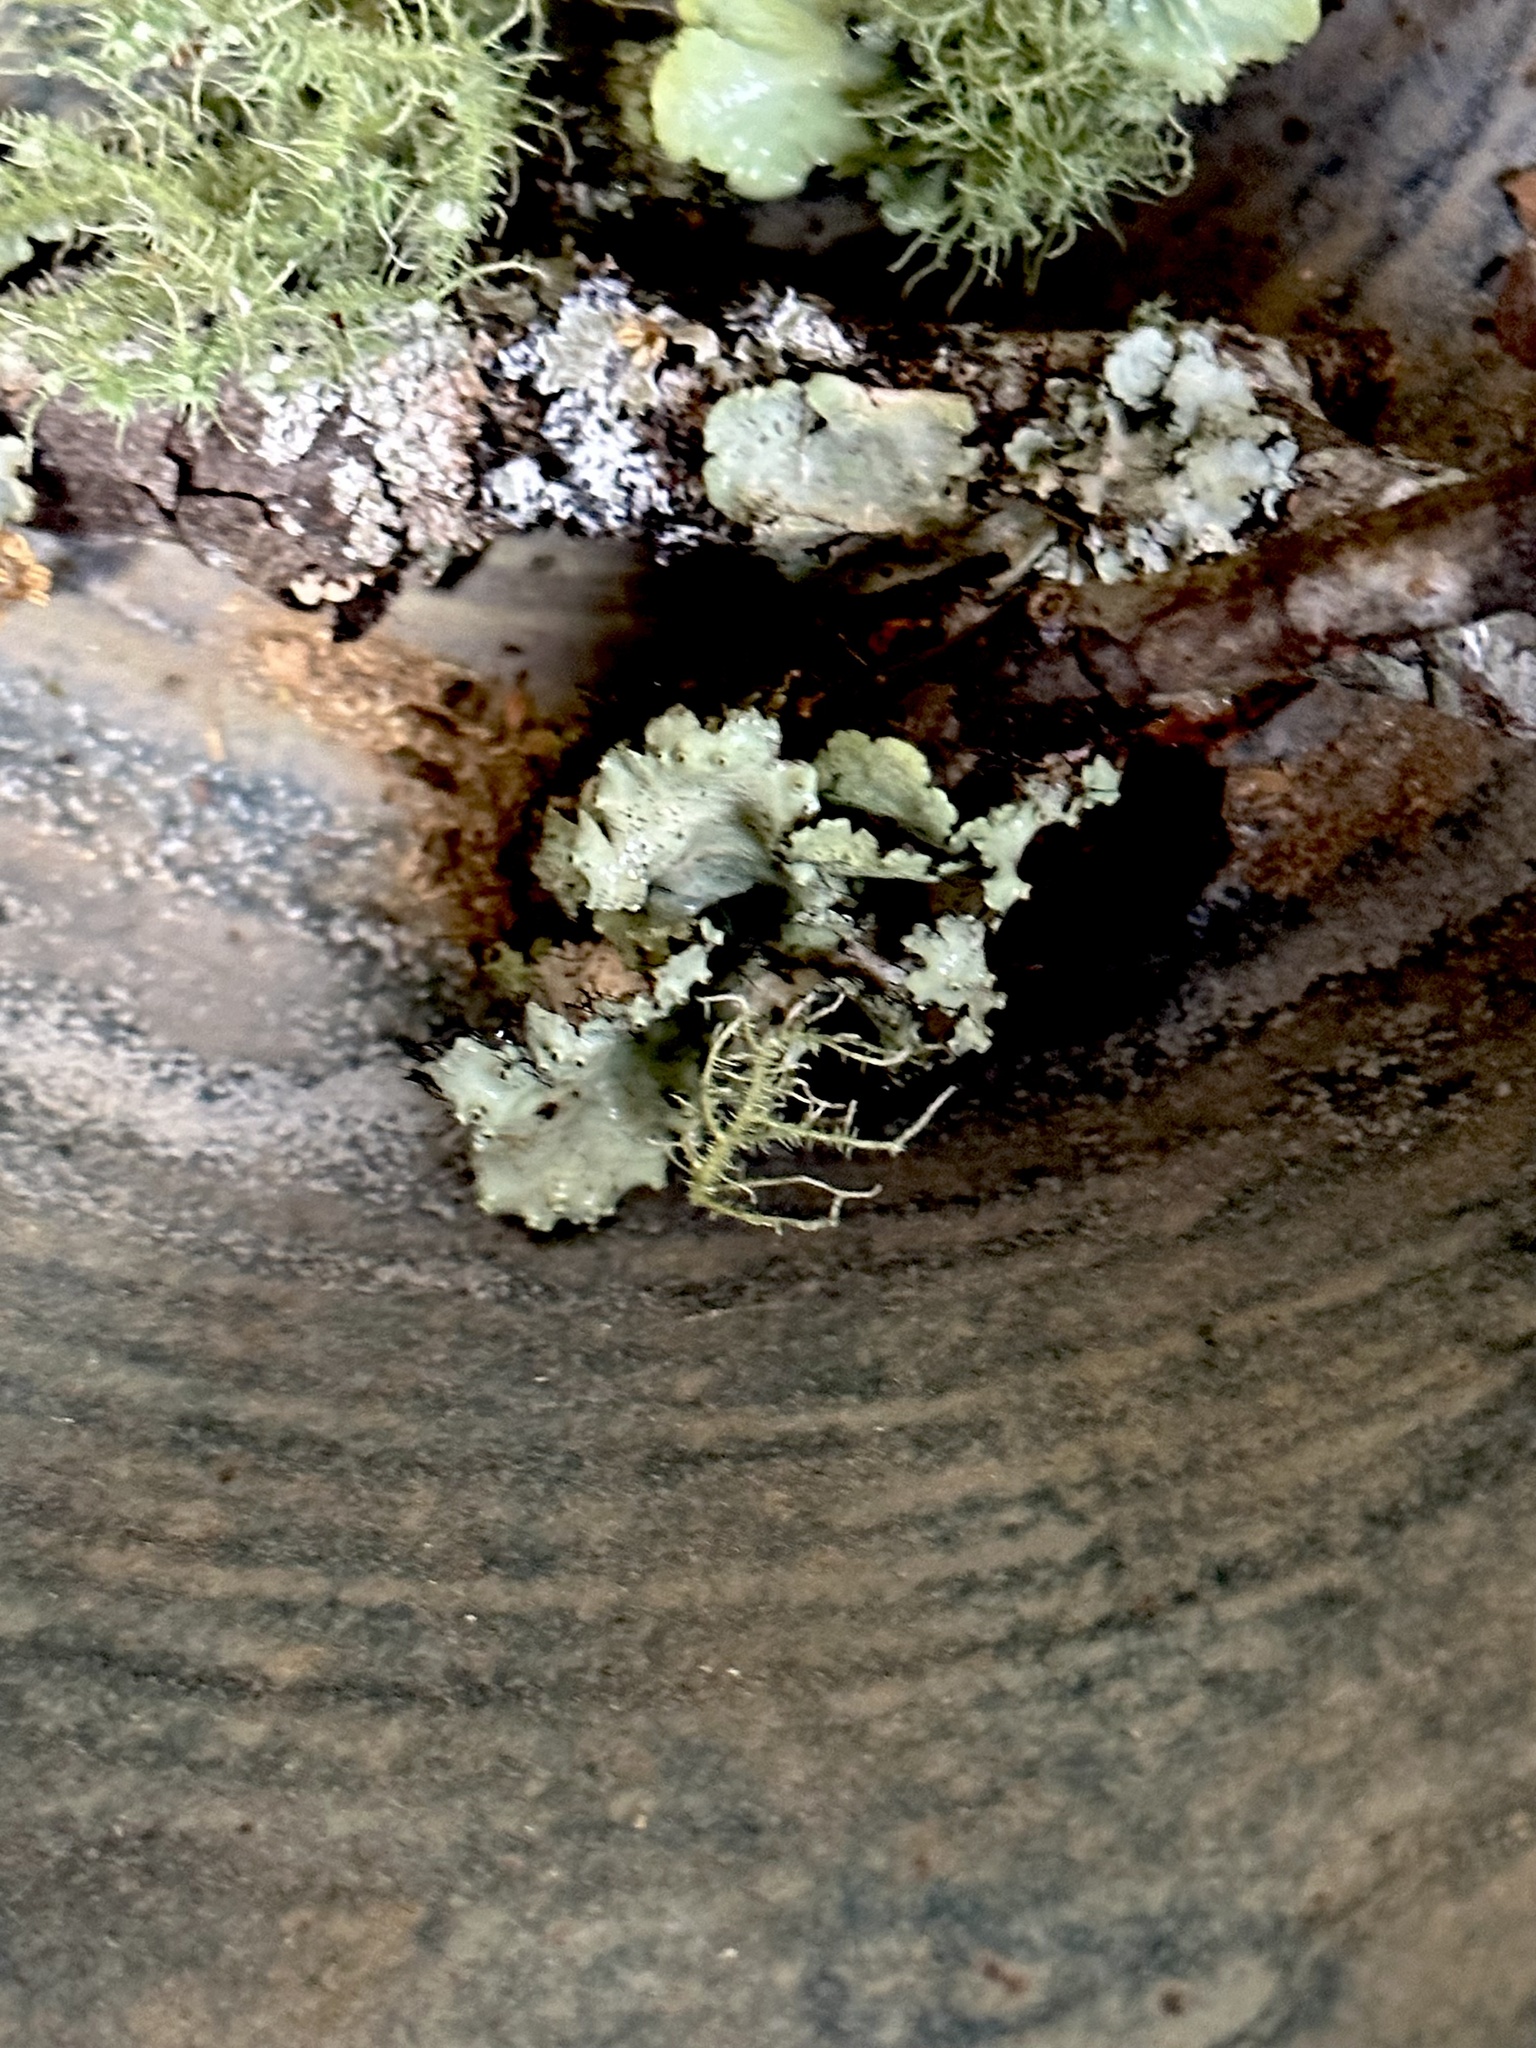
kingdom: Fungi
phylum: Ascomycota
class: Lecanoromycetes
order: Lecanorales
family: Parmeliaceae
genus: Parmotrema
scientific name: Parmotrema perforatum
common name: Perforated ruffle lichen
